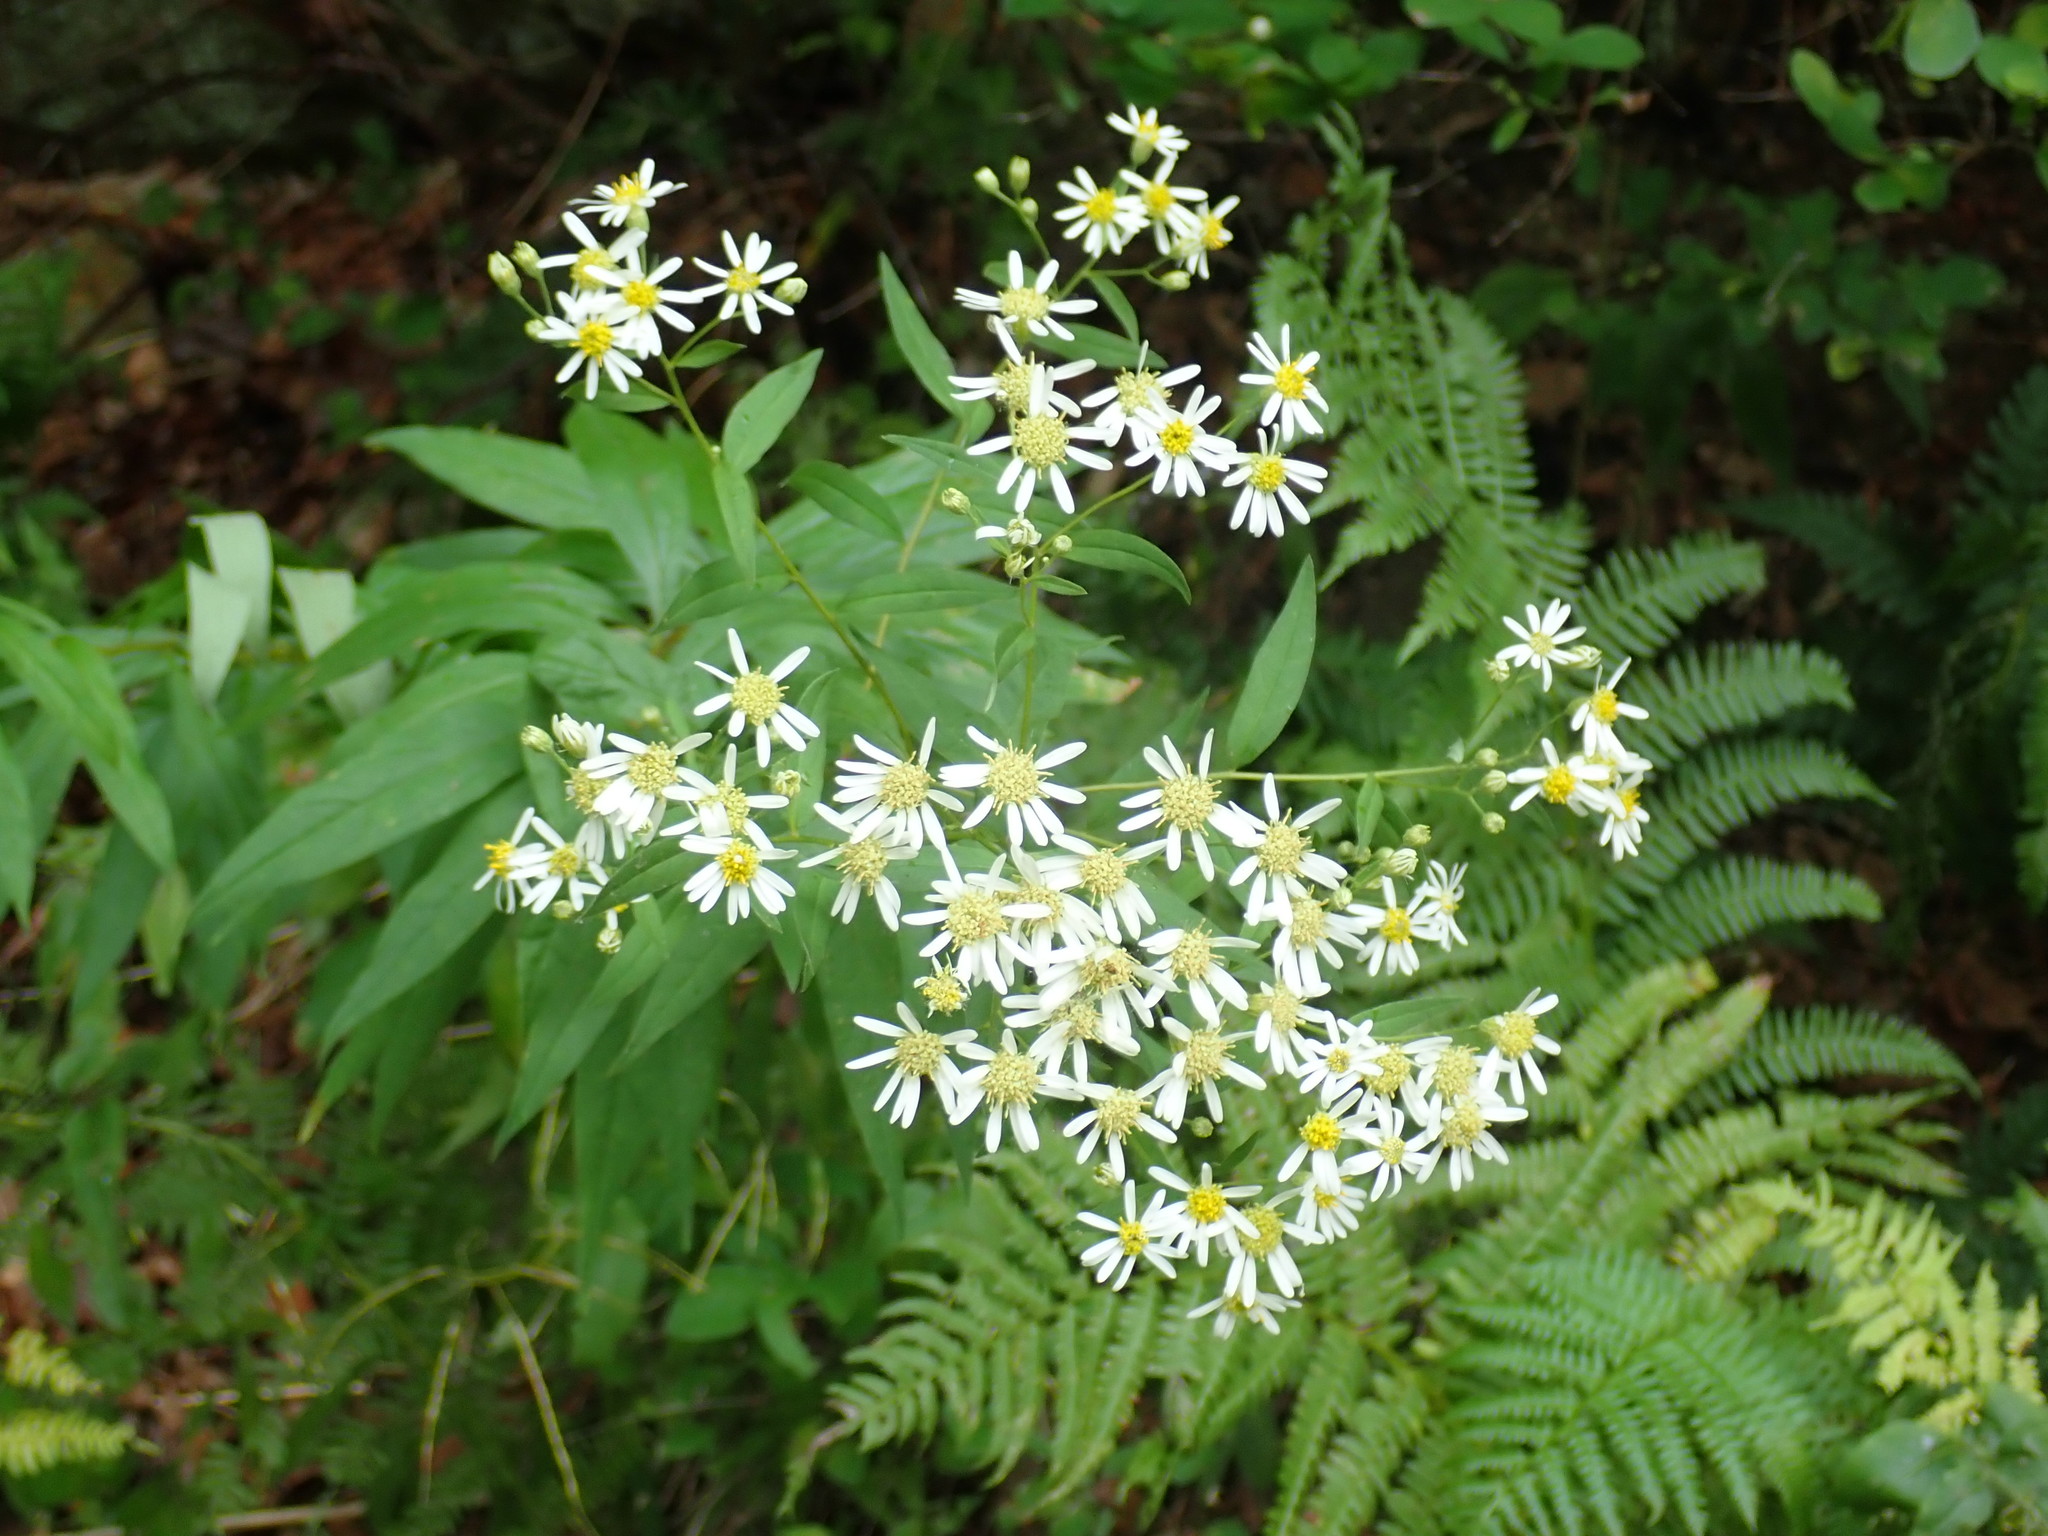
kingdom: Plantae
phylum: Tracheophyta
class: Magnoliopsida
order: Asterales
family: Asteraceae
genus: Doellingeria
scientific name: Doellingeria umbellata
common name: Flat-top white aster
